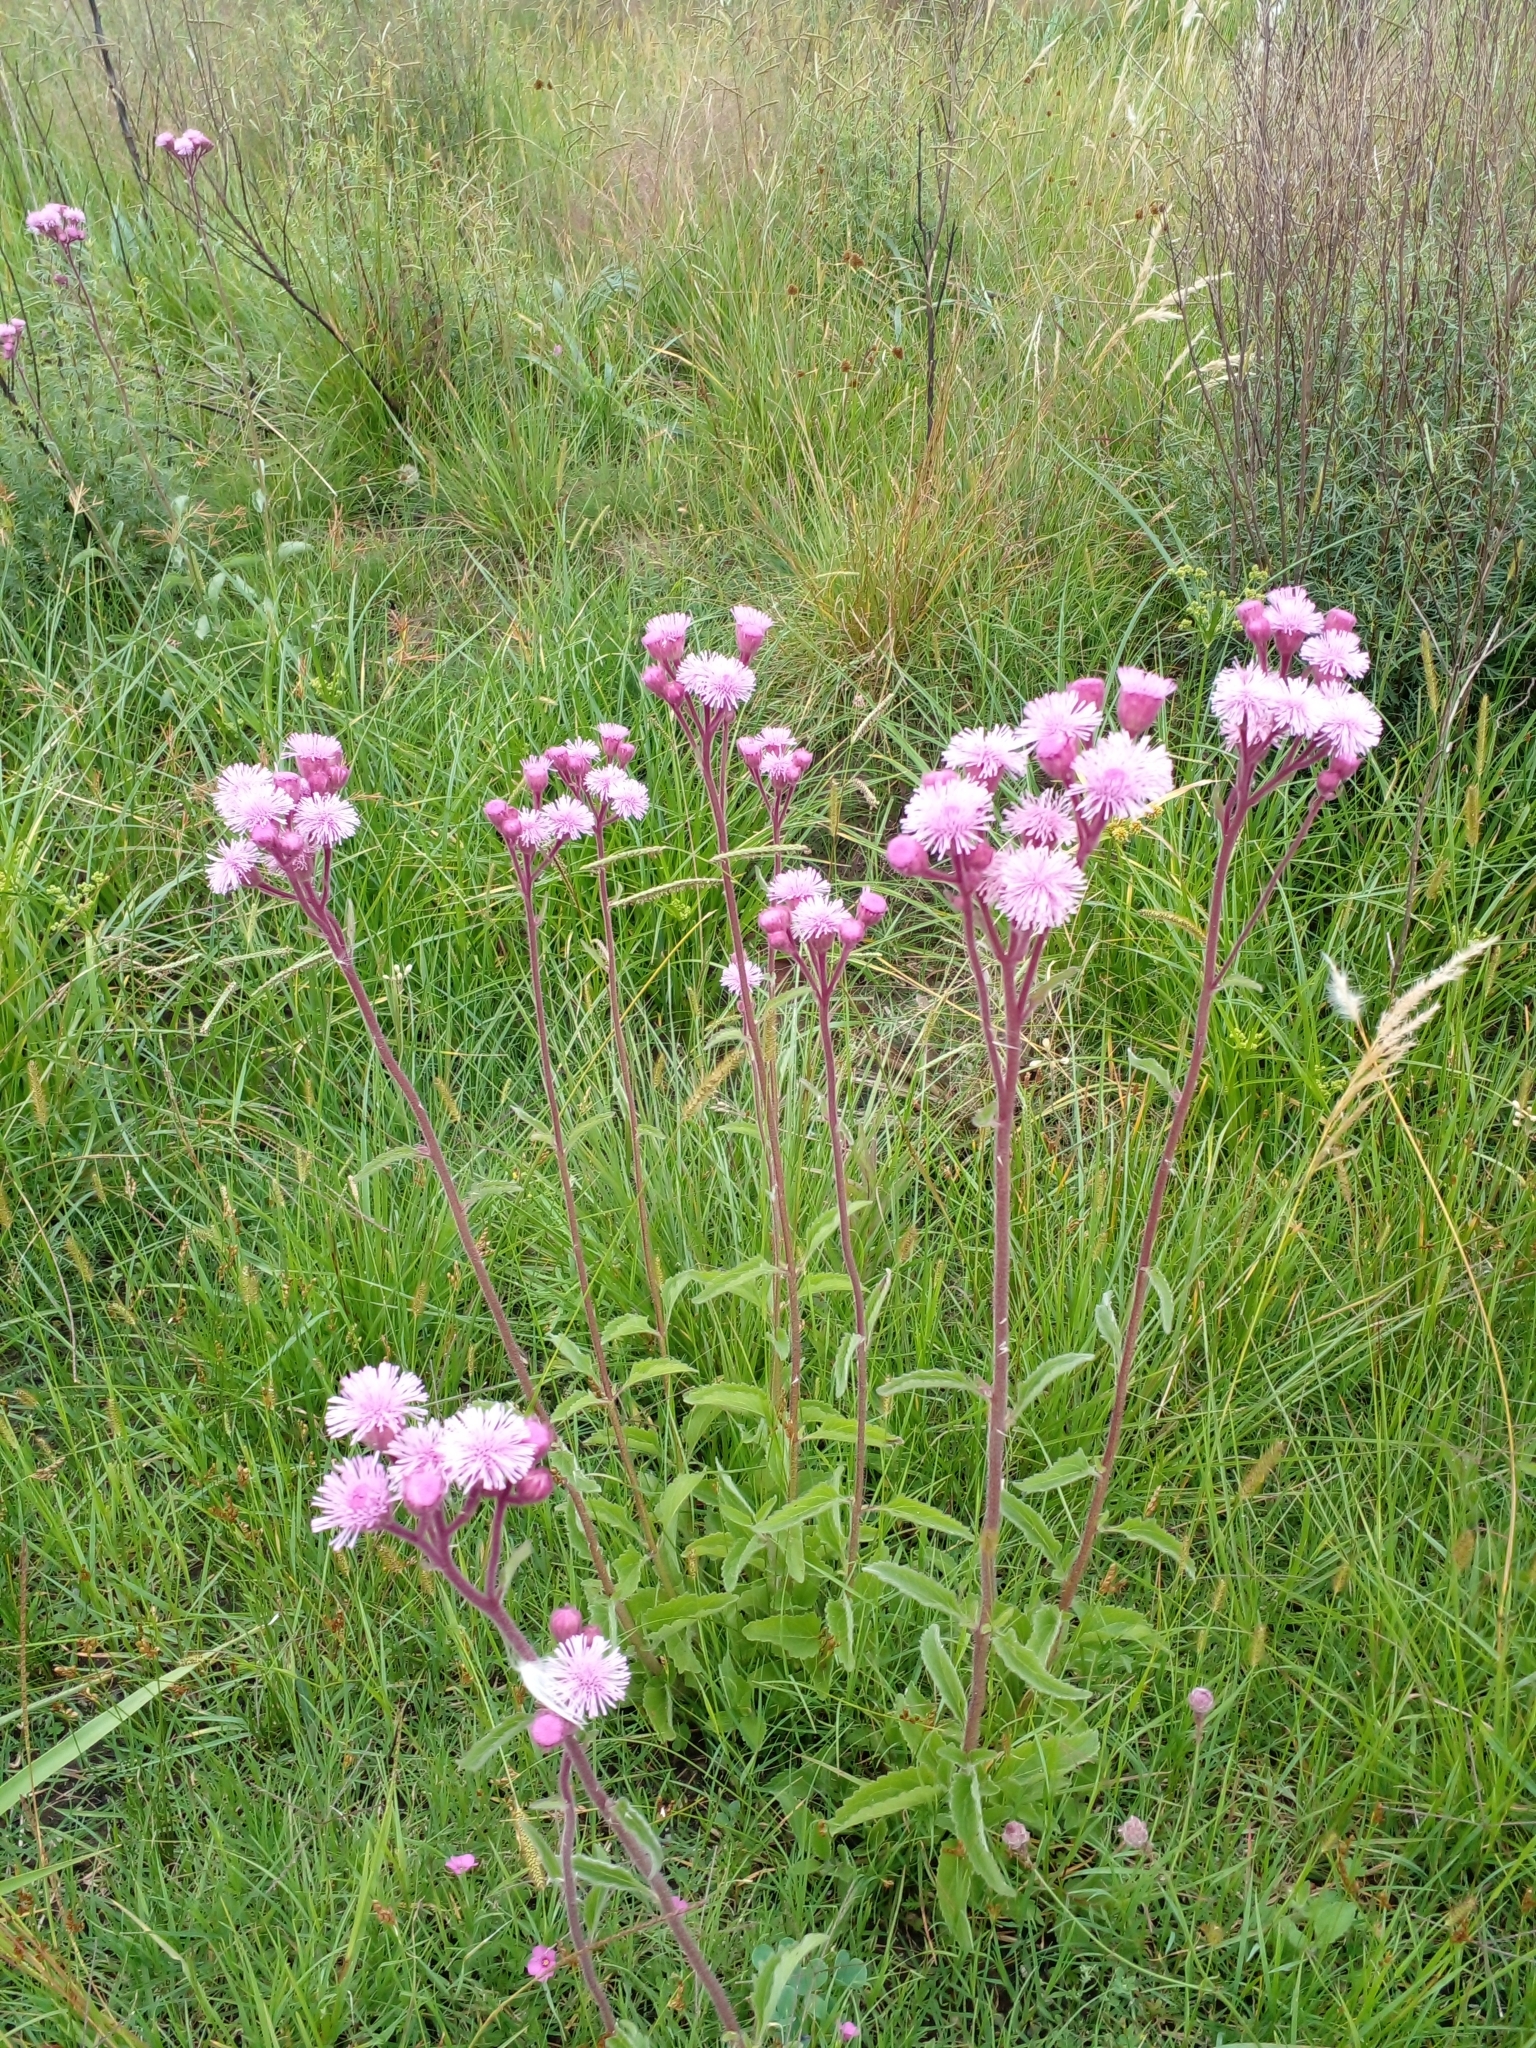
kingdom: Plantae
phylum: Tracheophyta
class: Magnoliopsida
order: Asterales
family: Asteraceae
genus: Campuloclinium
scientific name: Campuloclinium macrocephalum
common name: Pompomweed
